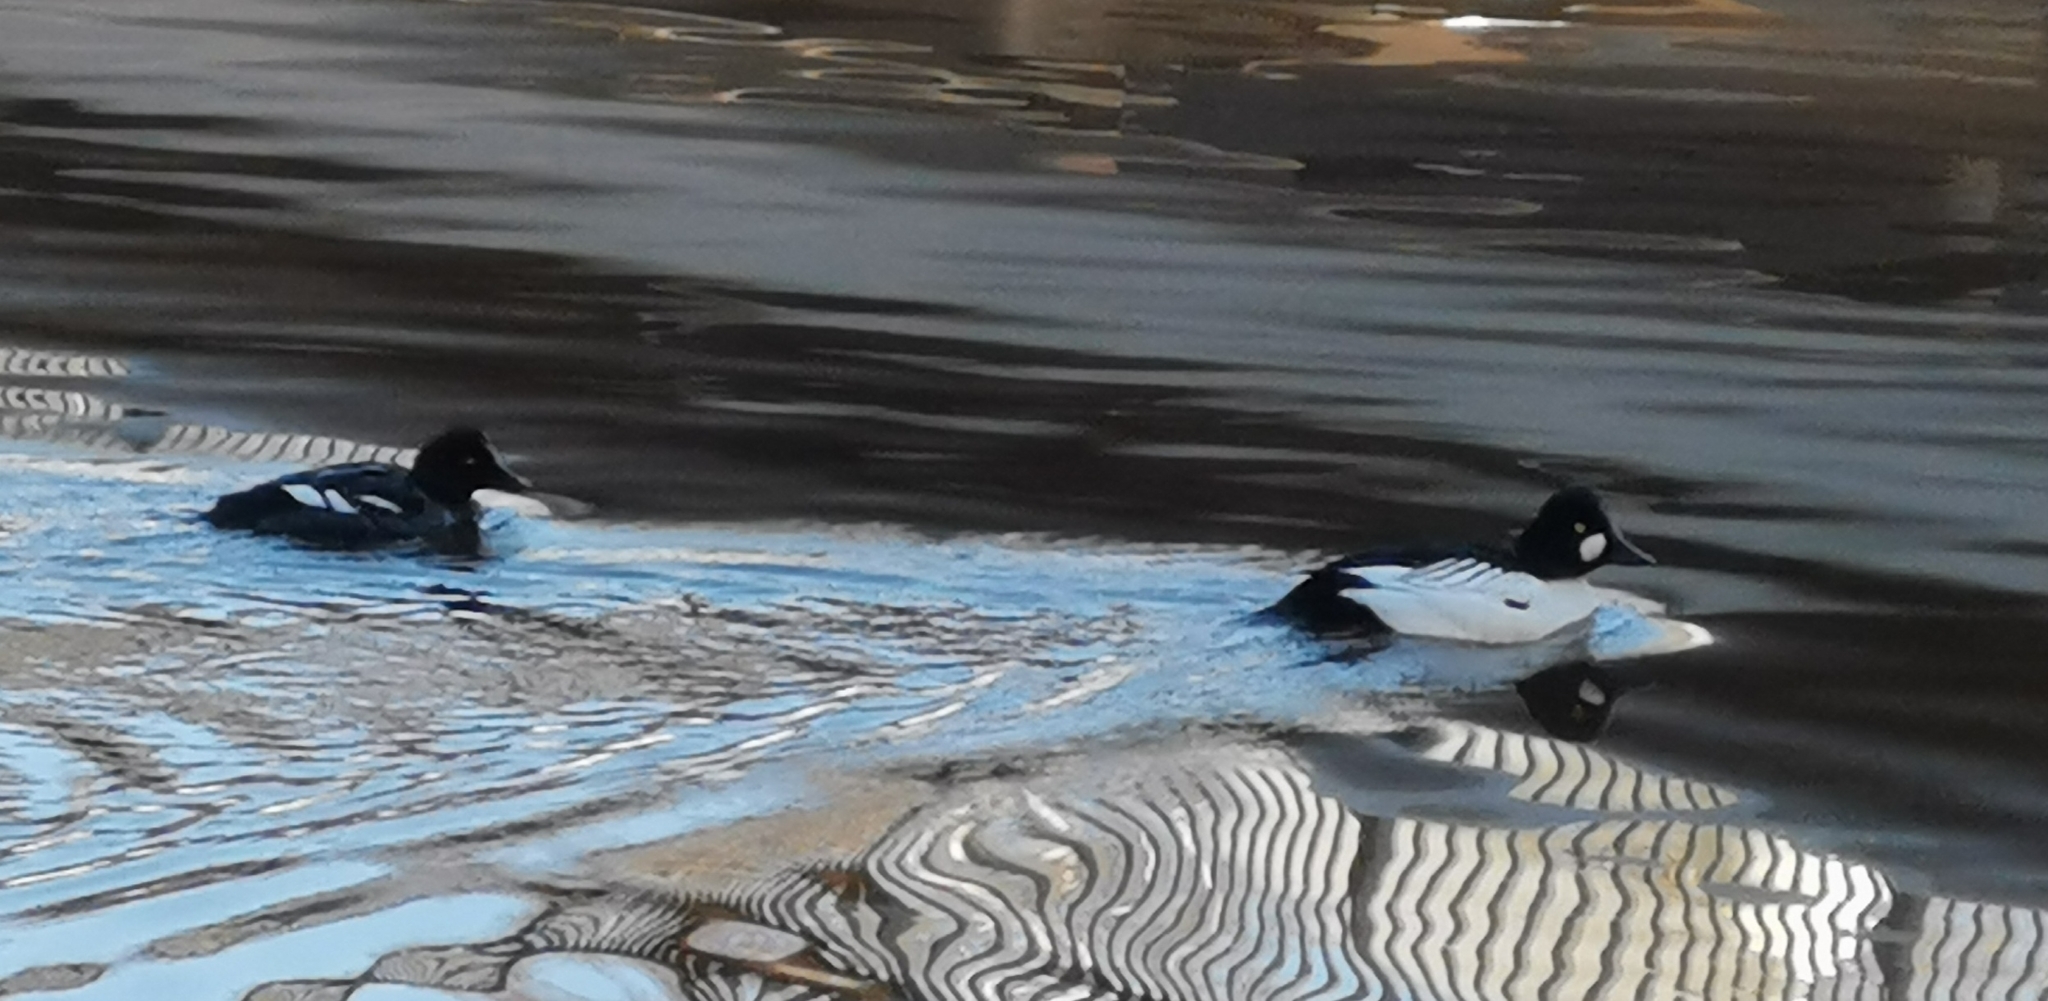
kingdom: Animalia
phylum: Chordata
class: Aves
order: Anseriformes
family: Anatidae
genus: Bucephala
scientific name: Bucephala clangula
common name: Common goldeneye
